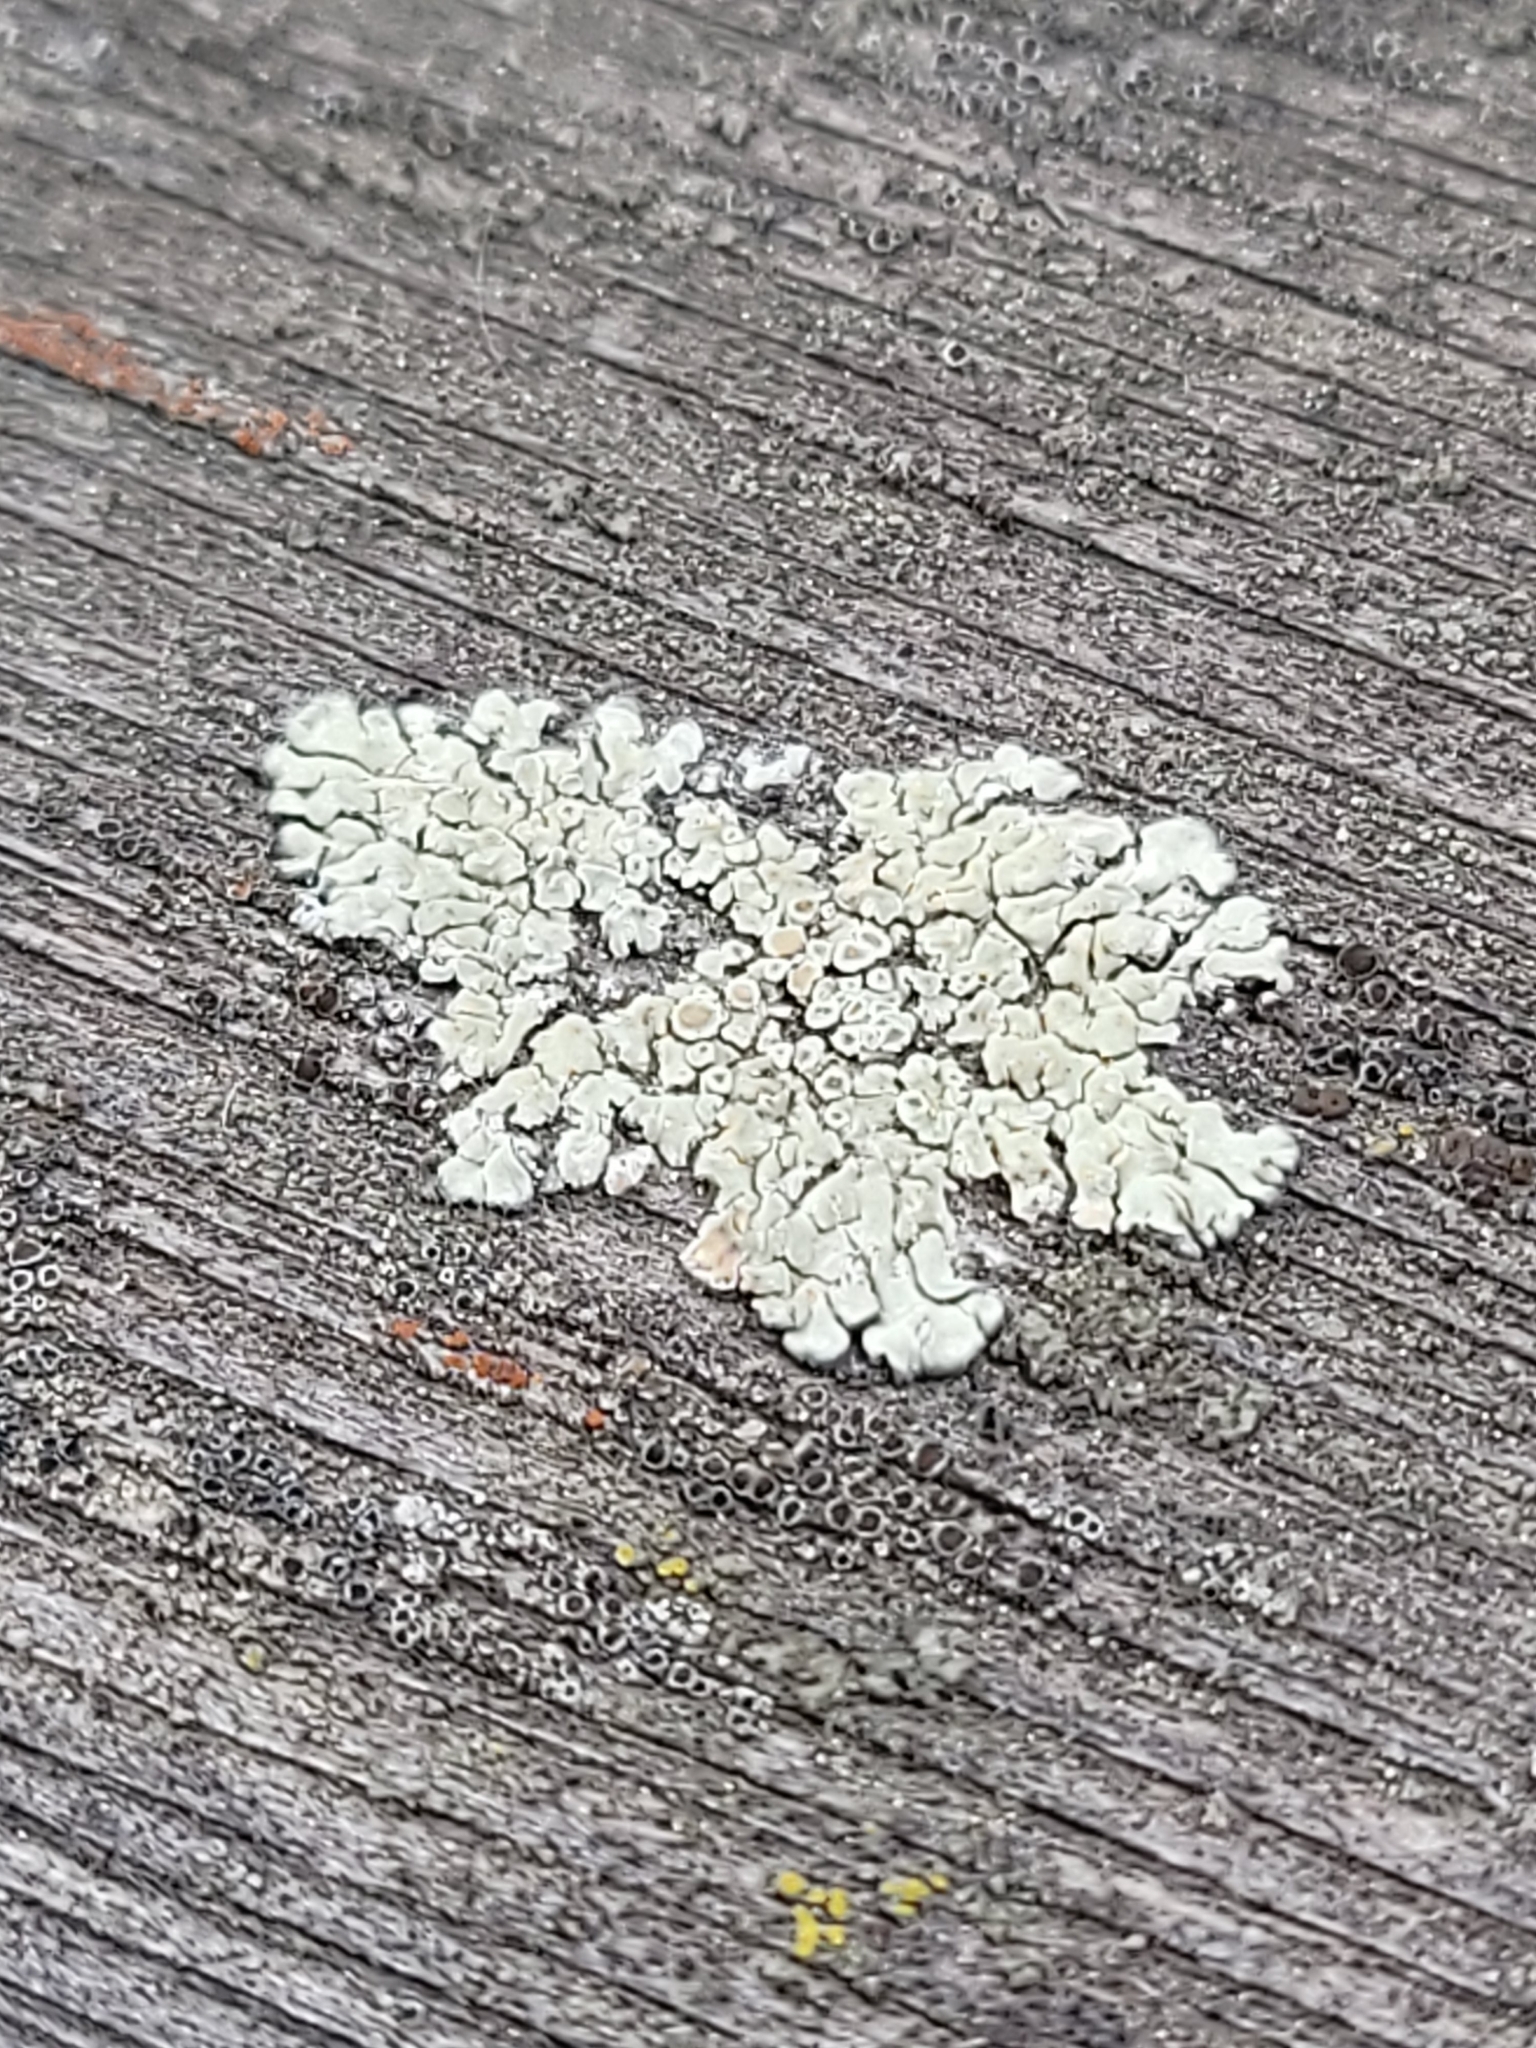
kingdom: Fungi
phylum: Ascomycota
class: Lecanoromycetes
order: Lecanorales
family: Lecanoraceae
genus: Protoparmeliopsis
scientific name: Protoparmeliopsis muralis
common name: Stonewall rim lichen
